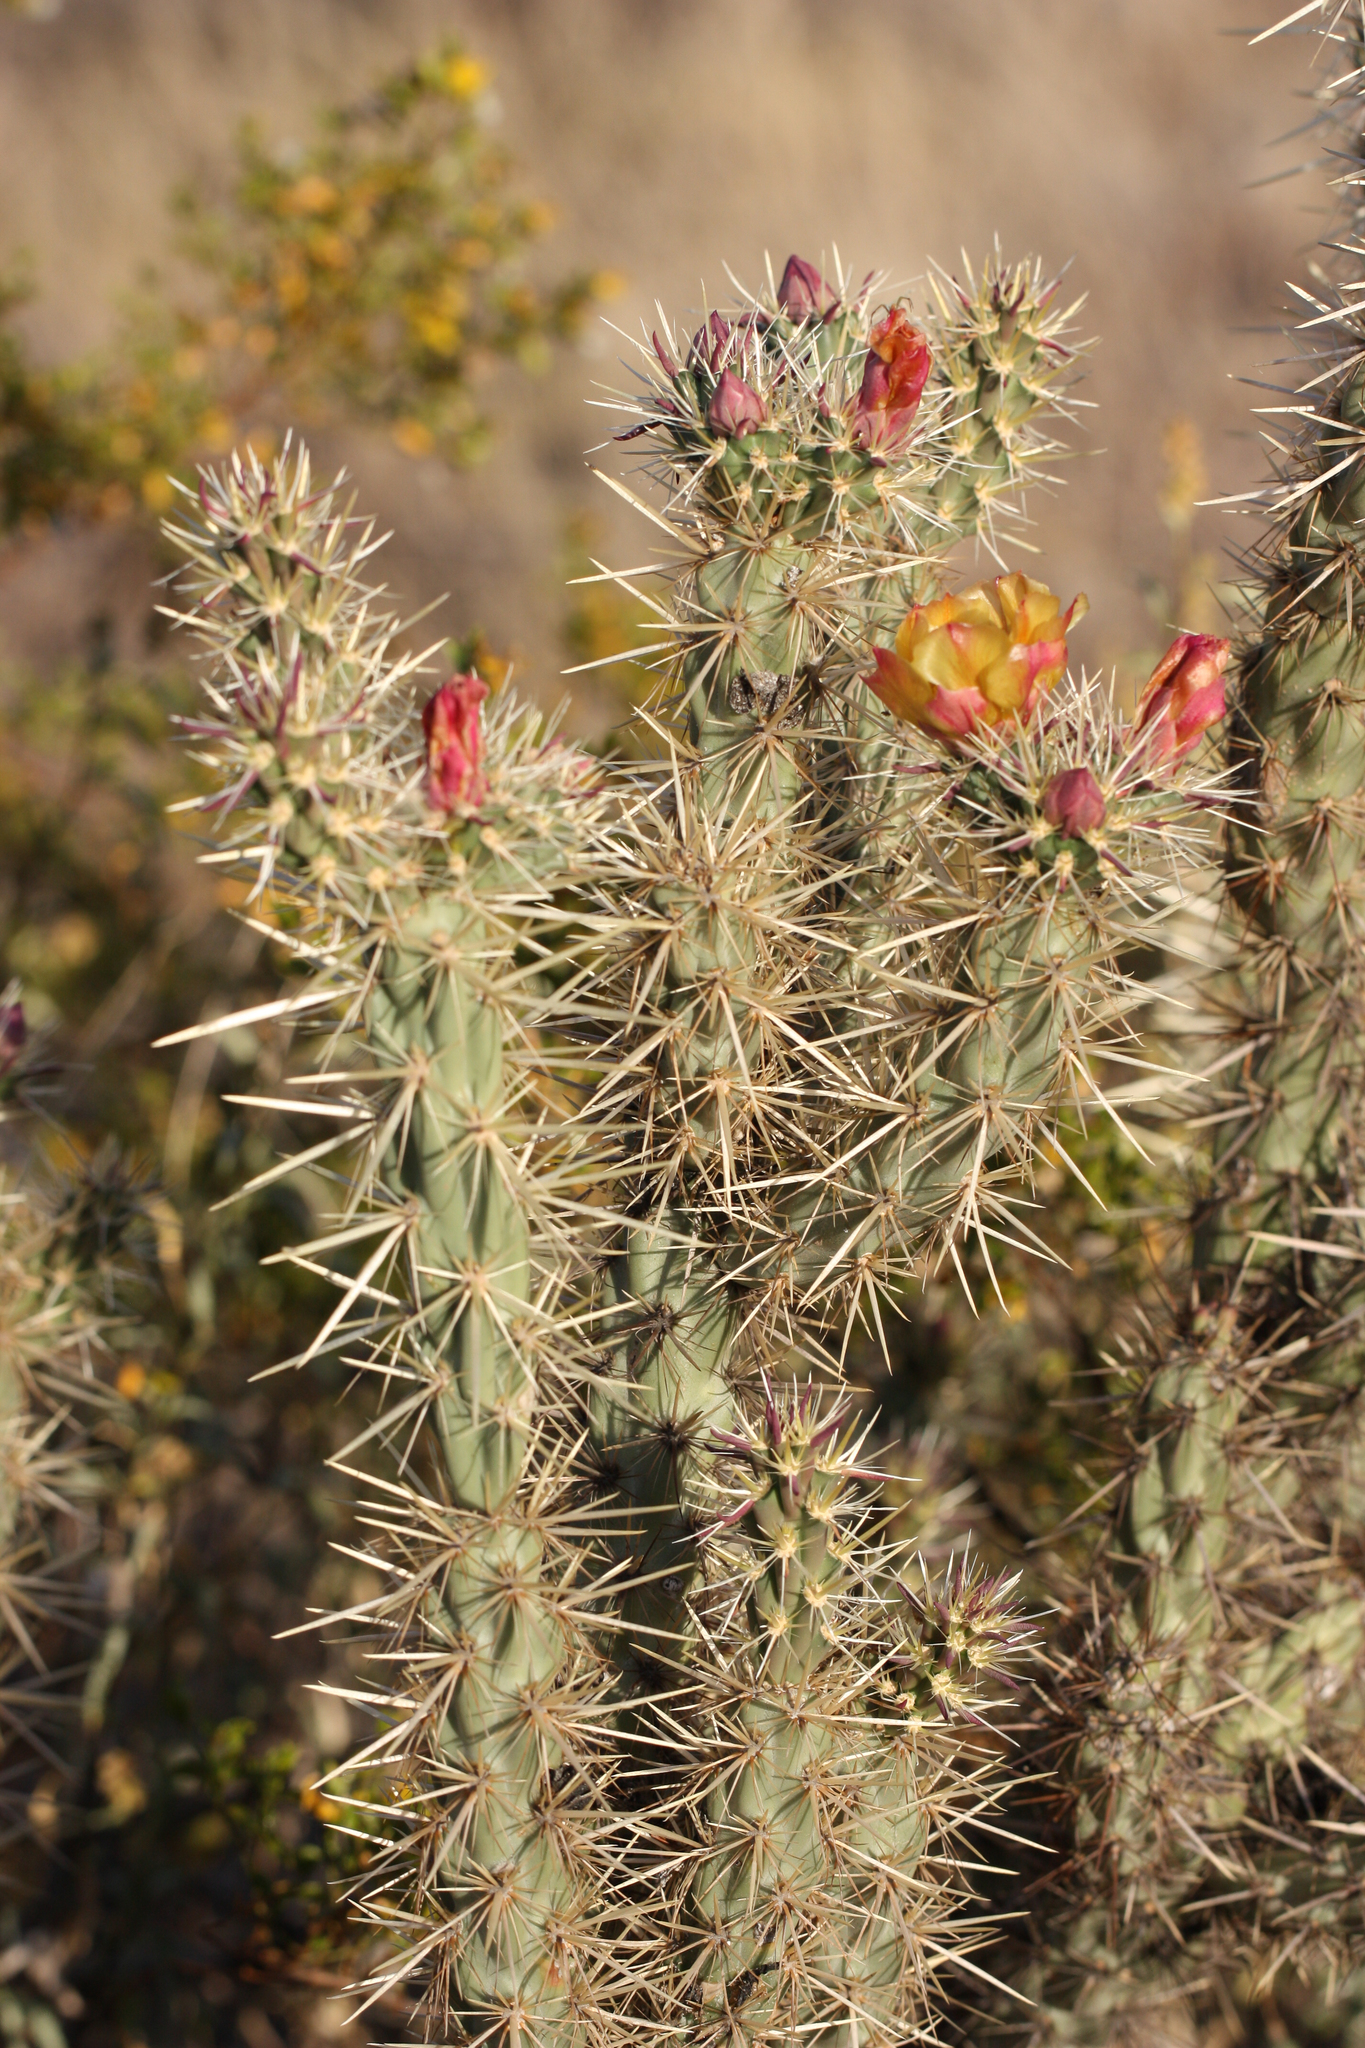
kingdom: Plantae
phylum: Tracheophyta
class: Magnoliopsida
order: Caryophyllales
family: Cactaceae
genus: Cylindropuntia
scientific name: Cylindropuntia acanthocarpa
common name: Buckhorn cholla
